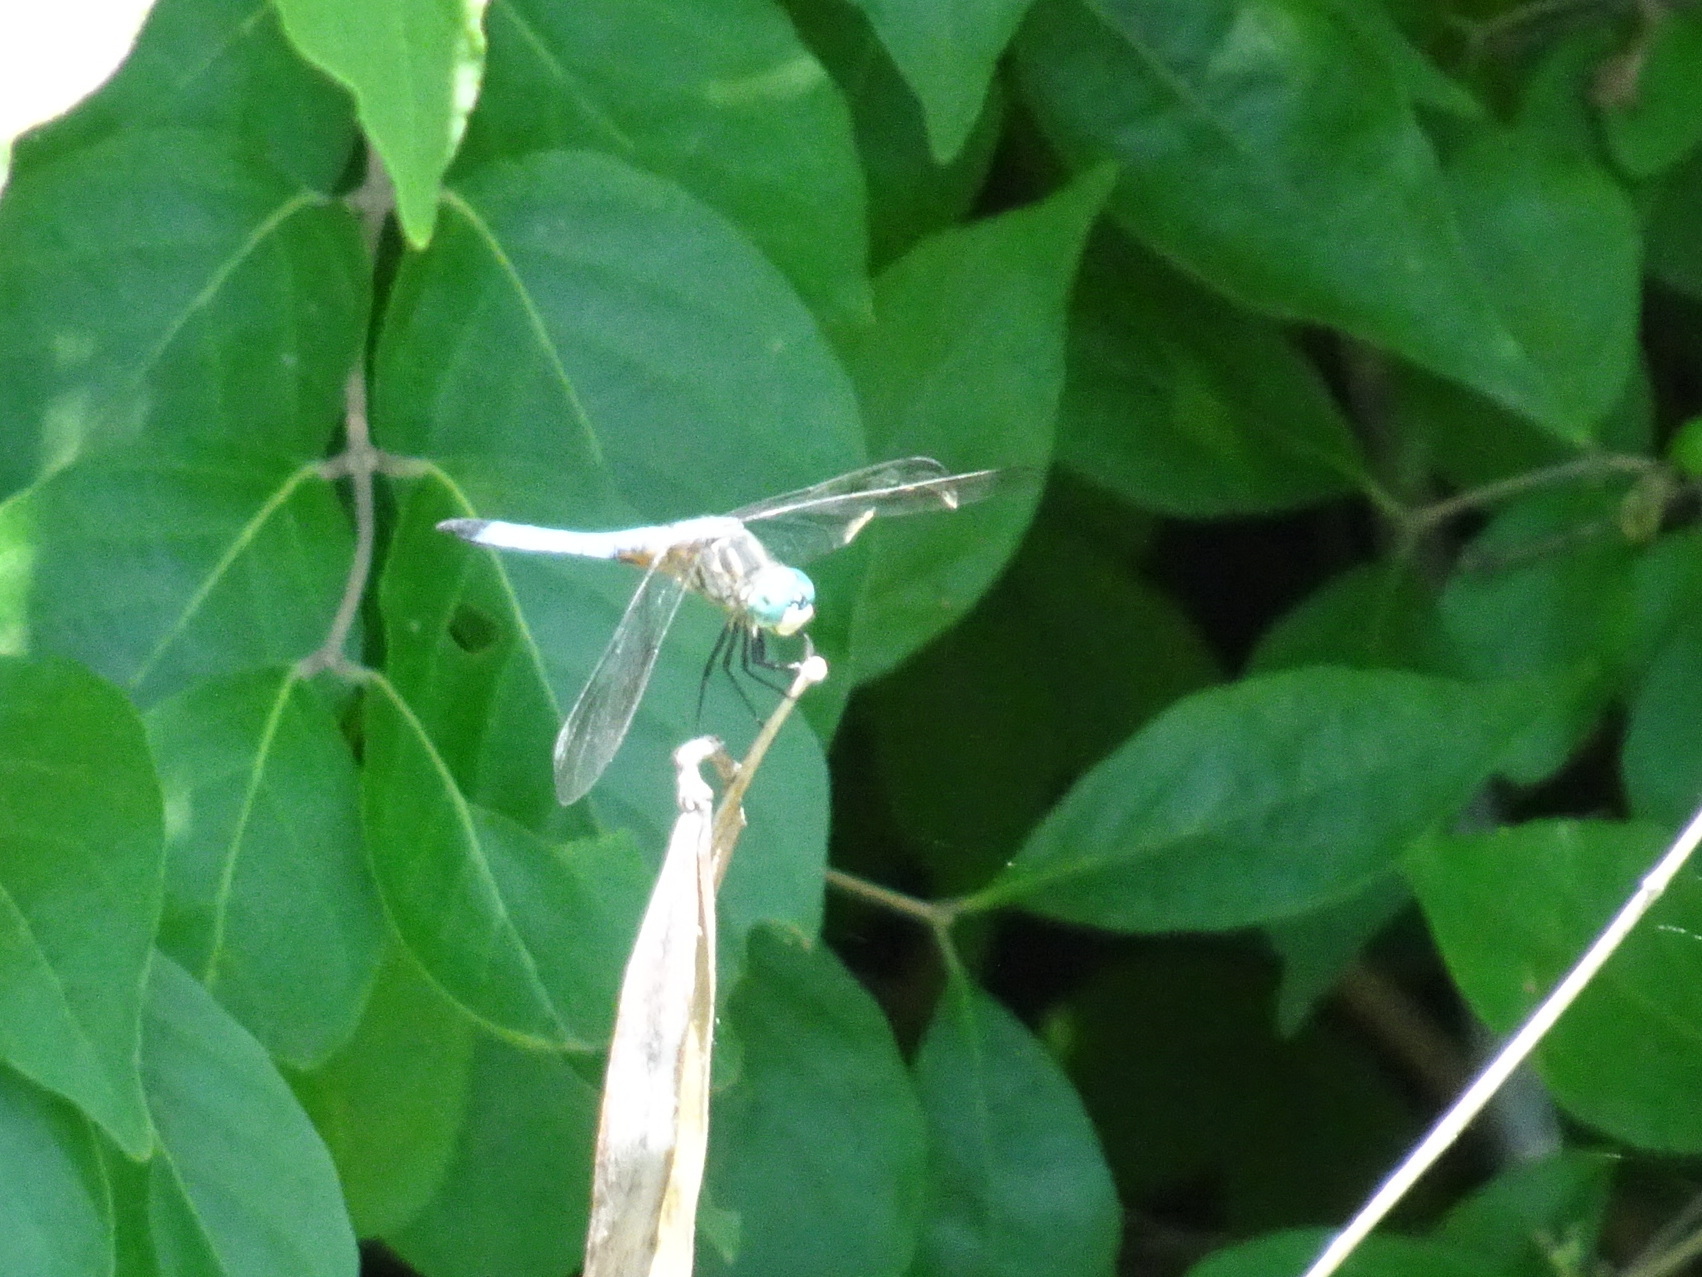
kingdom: Animalia
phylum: Arthropoda
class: Insecta
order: Odonata
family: Libellulidae
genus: Pachydiplax
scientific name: Pachydiplax longipennis
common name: Blue dasher
